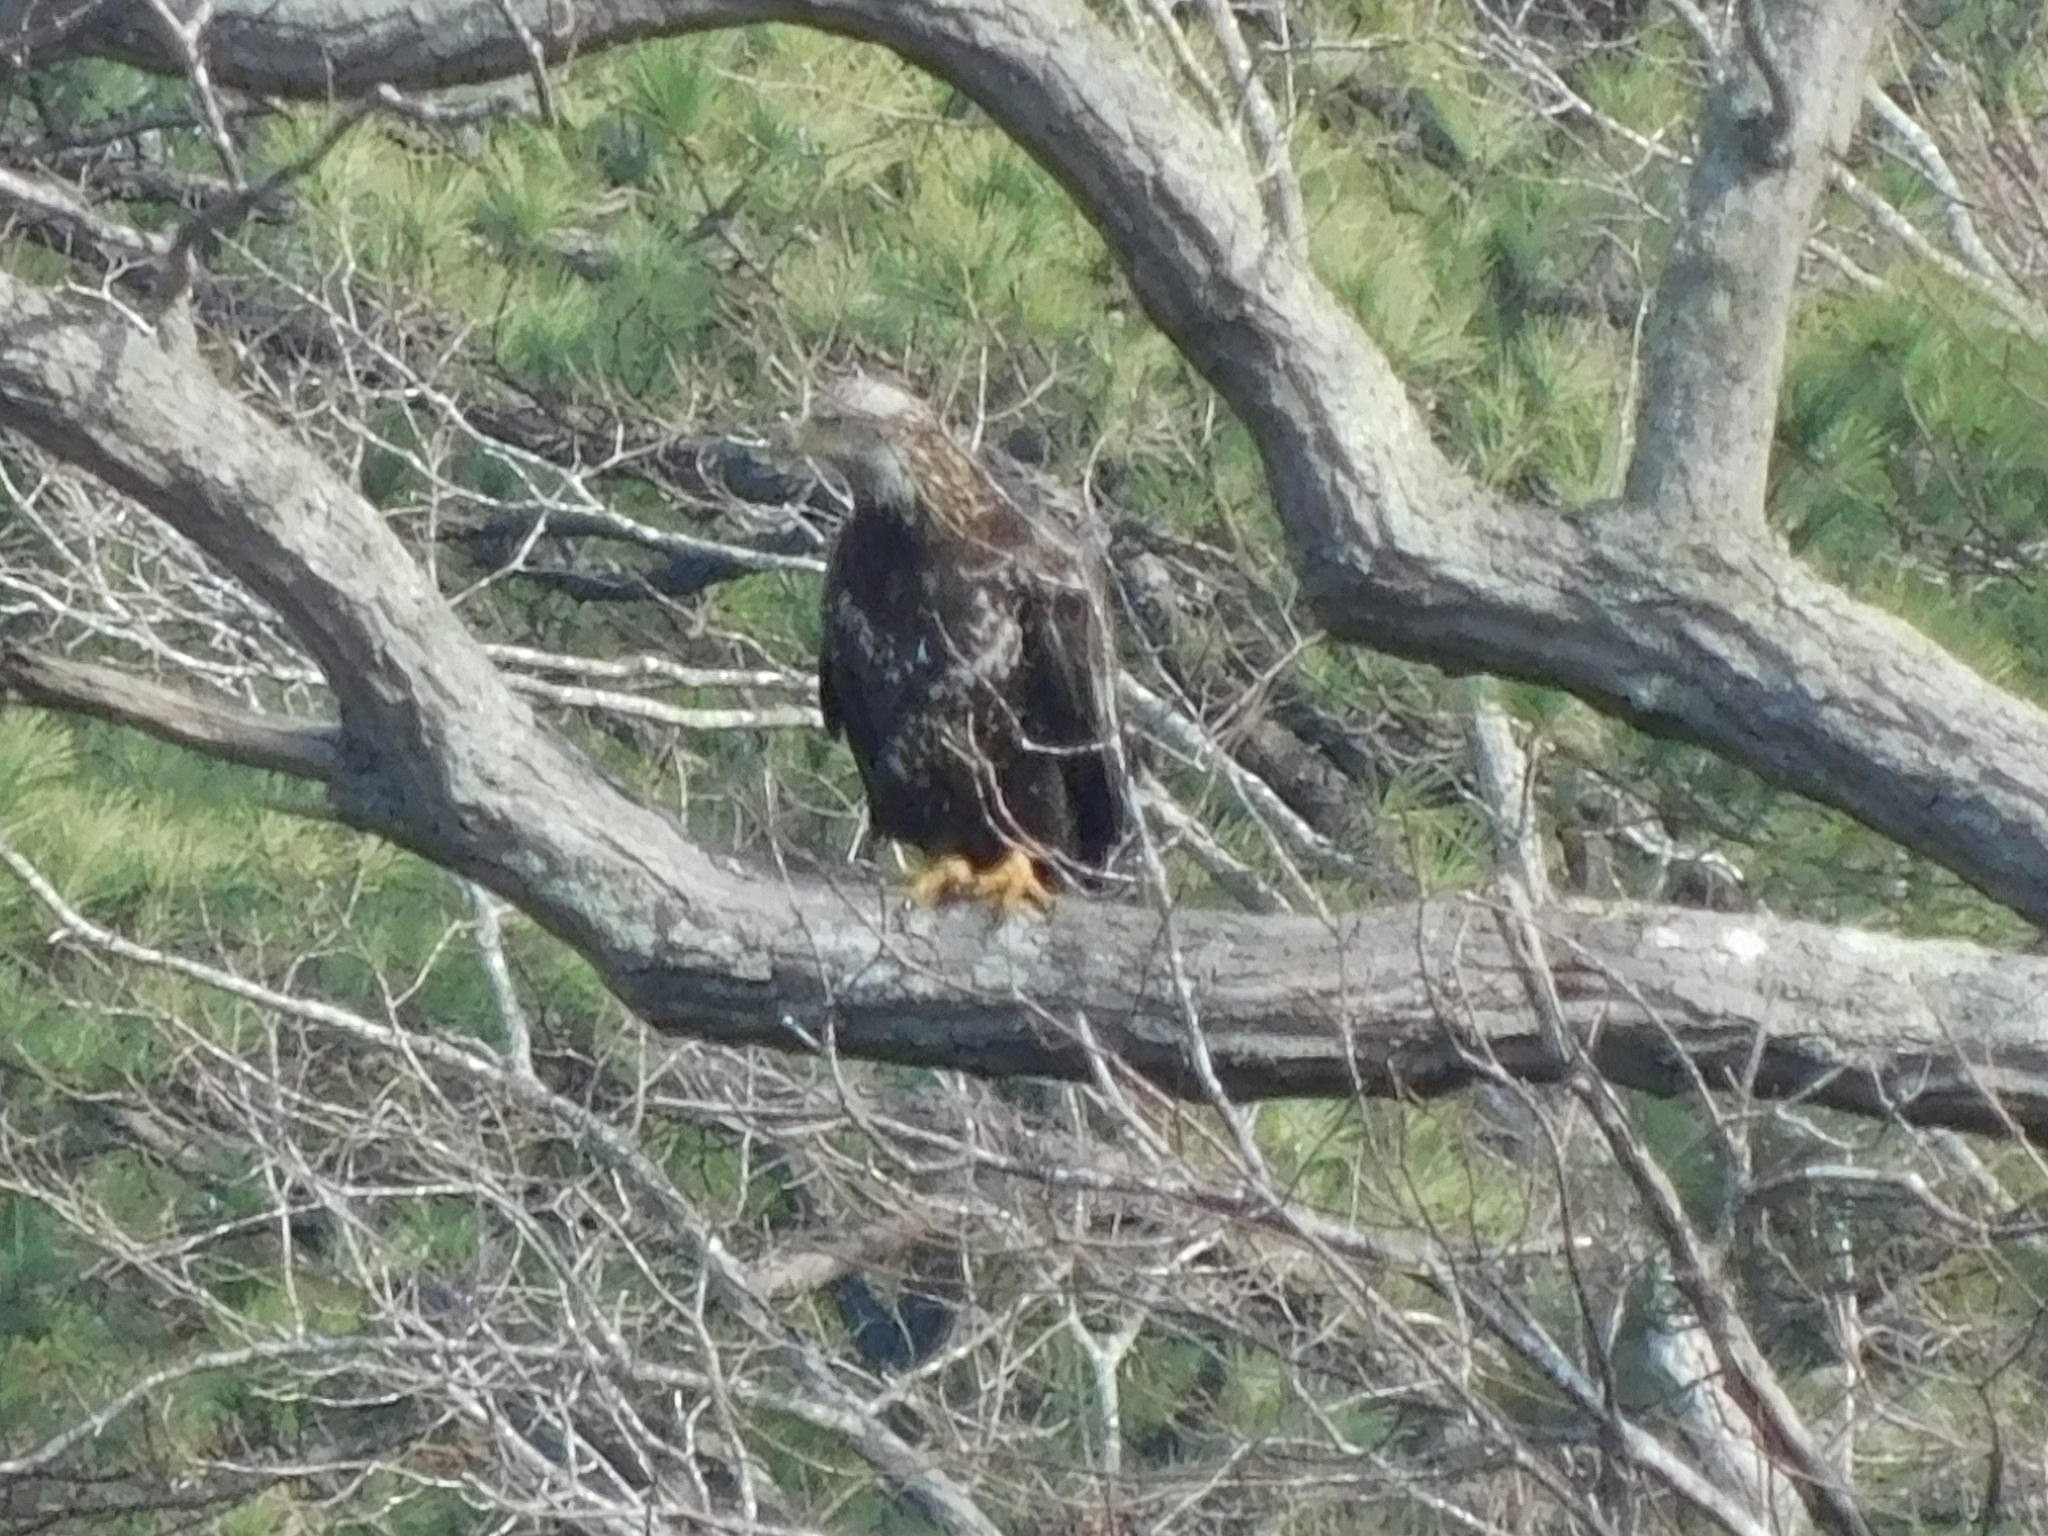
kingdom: Animalia
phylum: Chordata
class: Aves
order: Accipitriformes
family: Accipitridae
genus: Haliaeetus
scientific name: Haliaeetus leucocephalus
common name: Bald eagle
